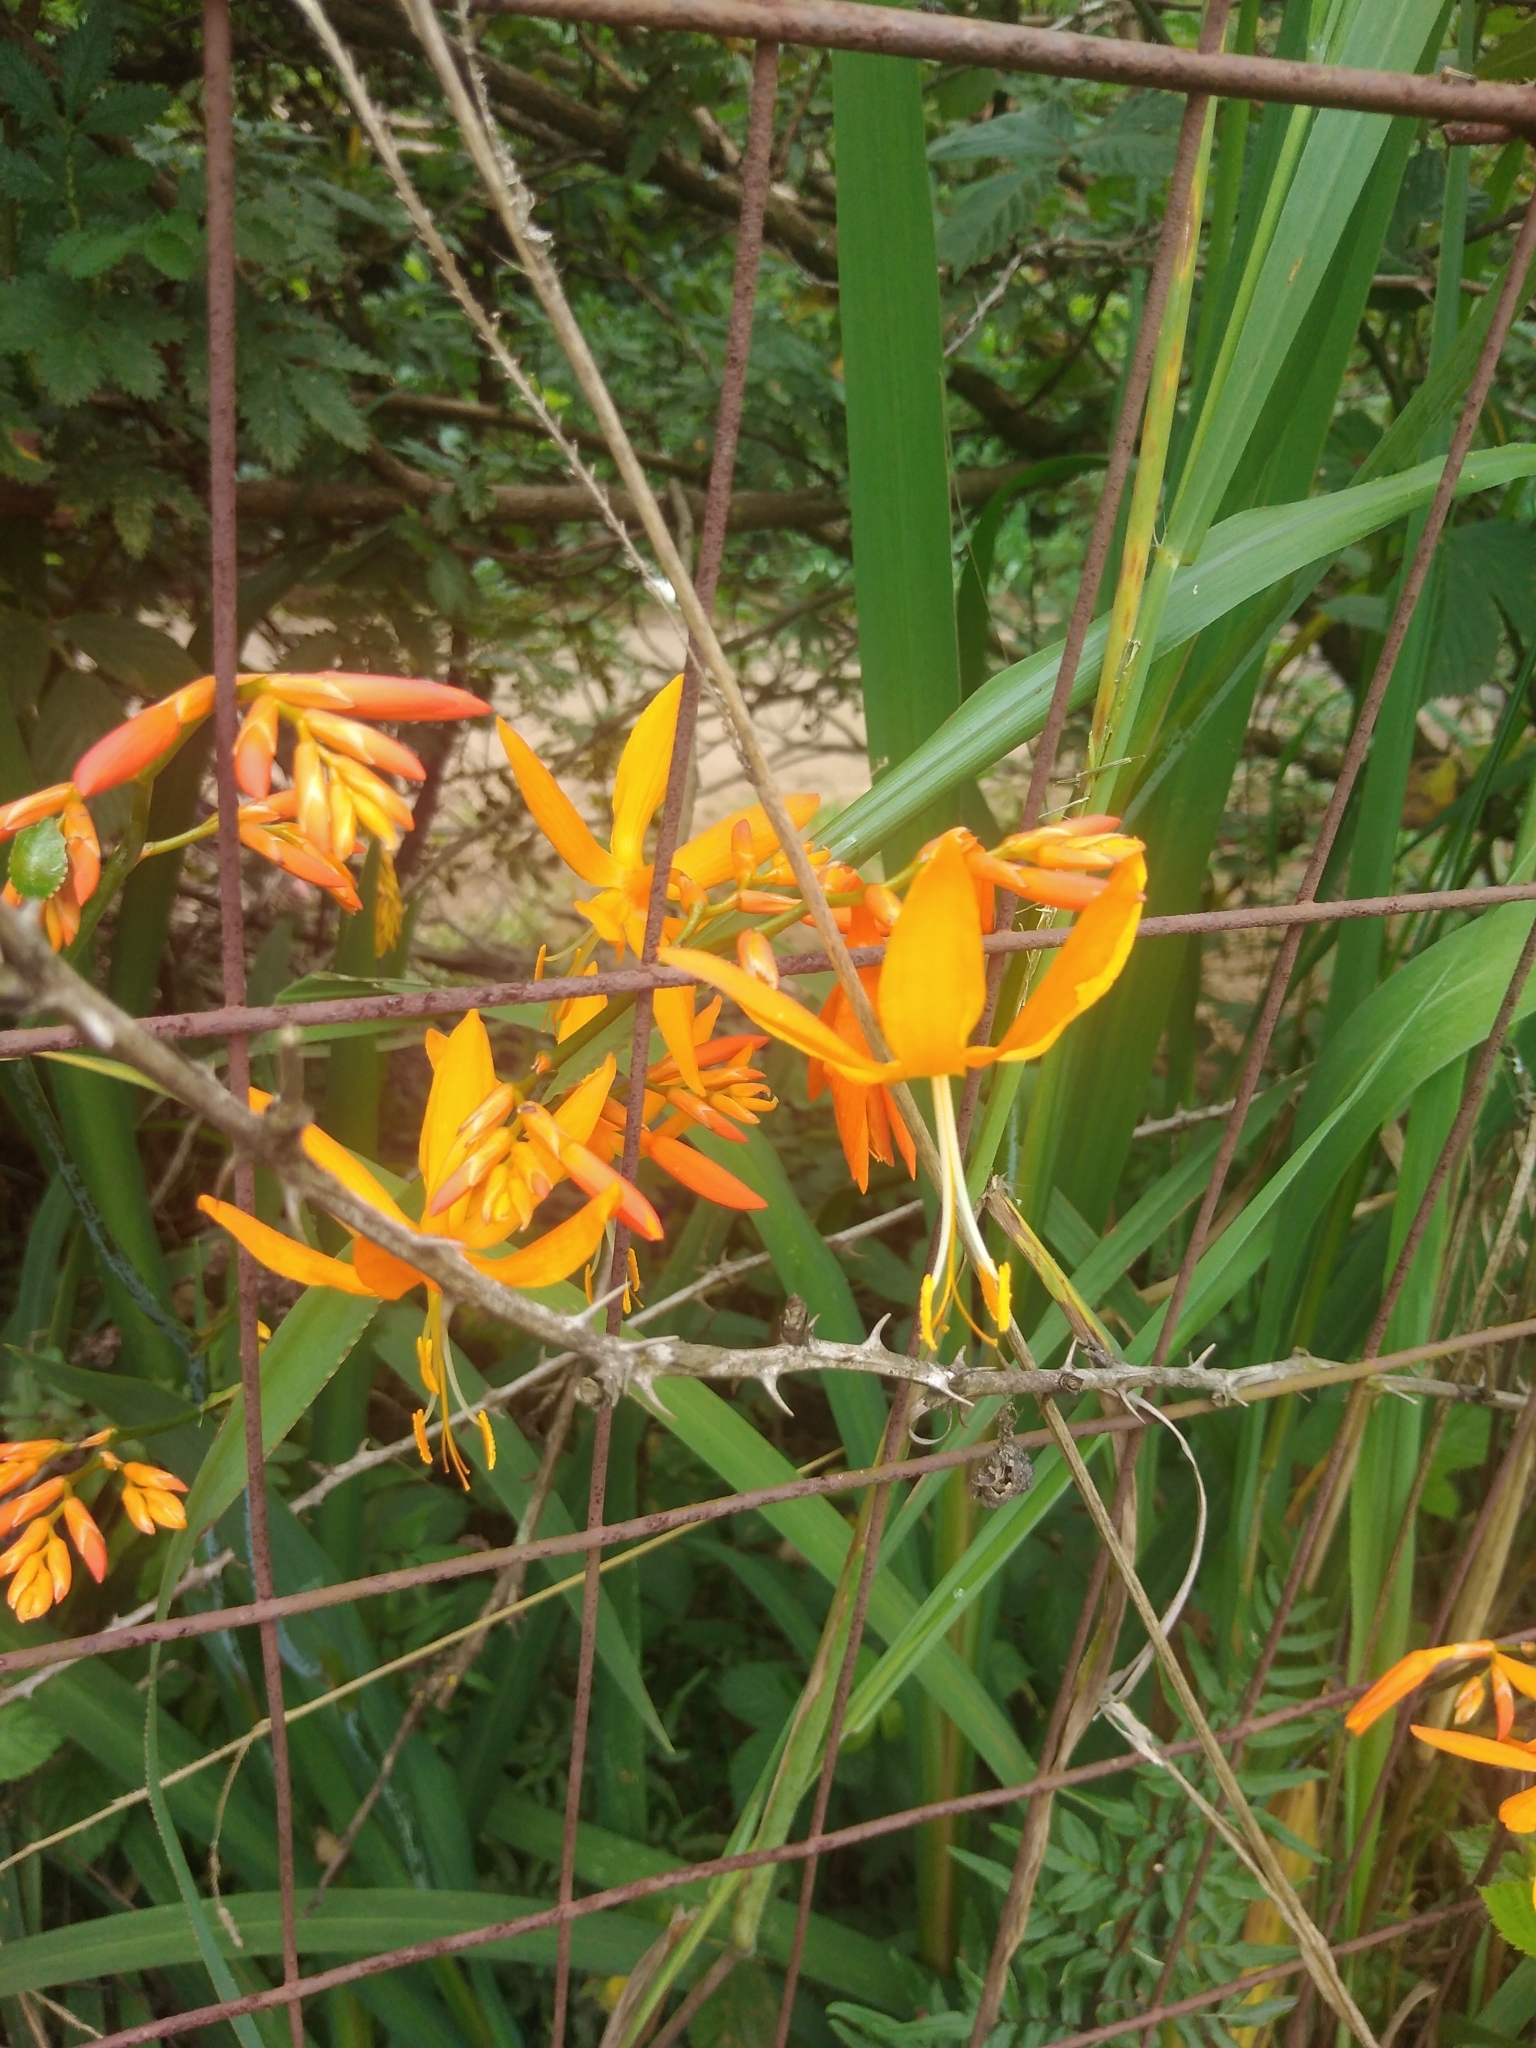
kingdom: Plantae
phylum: Tracheophyta
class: Liliopsida
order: Asparagales
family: Iridaceae
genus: Crocosmia
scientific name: Crocosmia aurea
